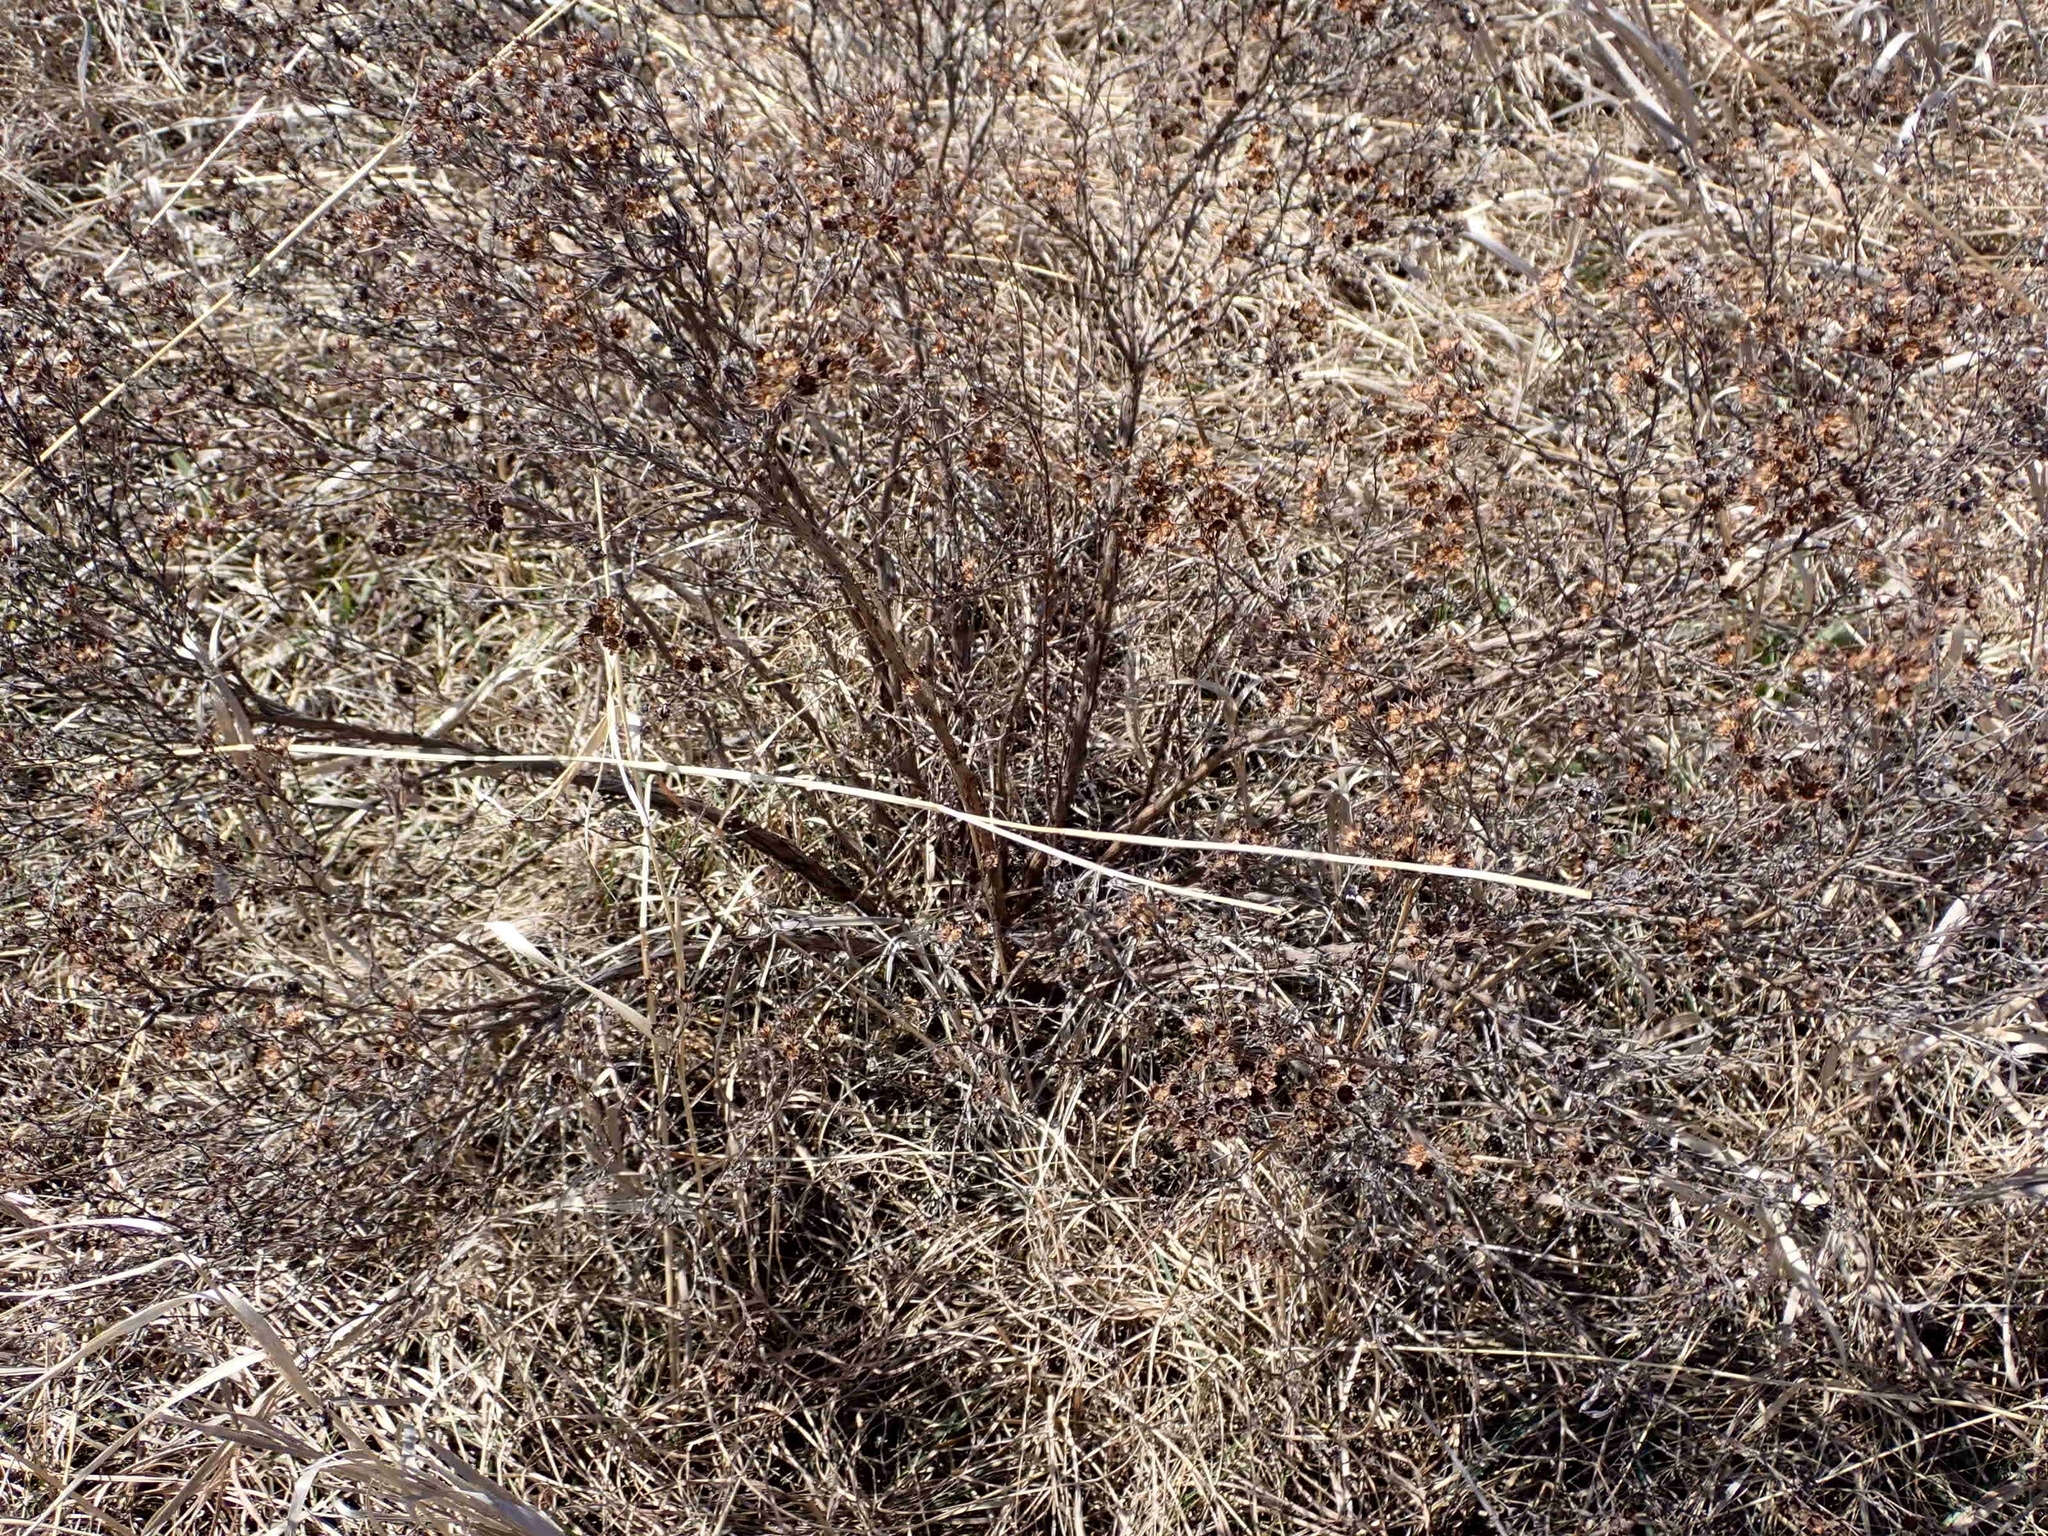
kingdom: Plantae
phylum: Tracheophyta
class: Magnoliopsida
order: Rosales
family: Rosaceae
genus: Dasiphora
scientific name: Dasiphora fruticosa
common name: Shrubby cinquefoil
